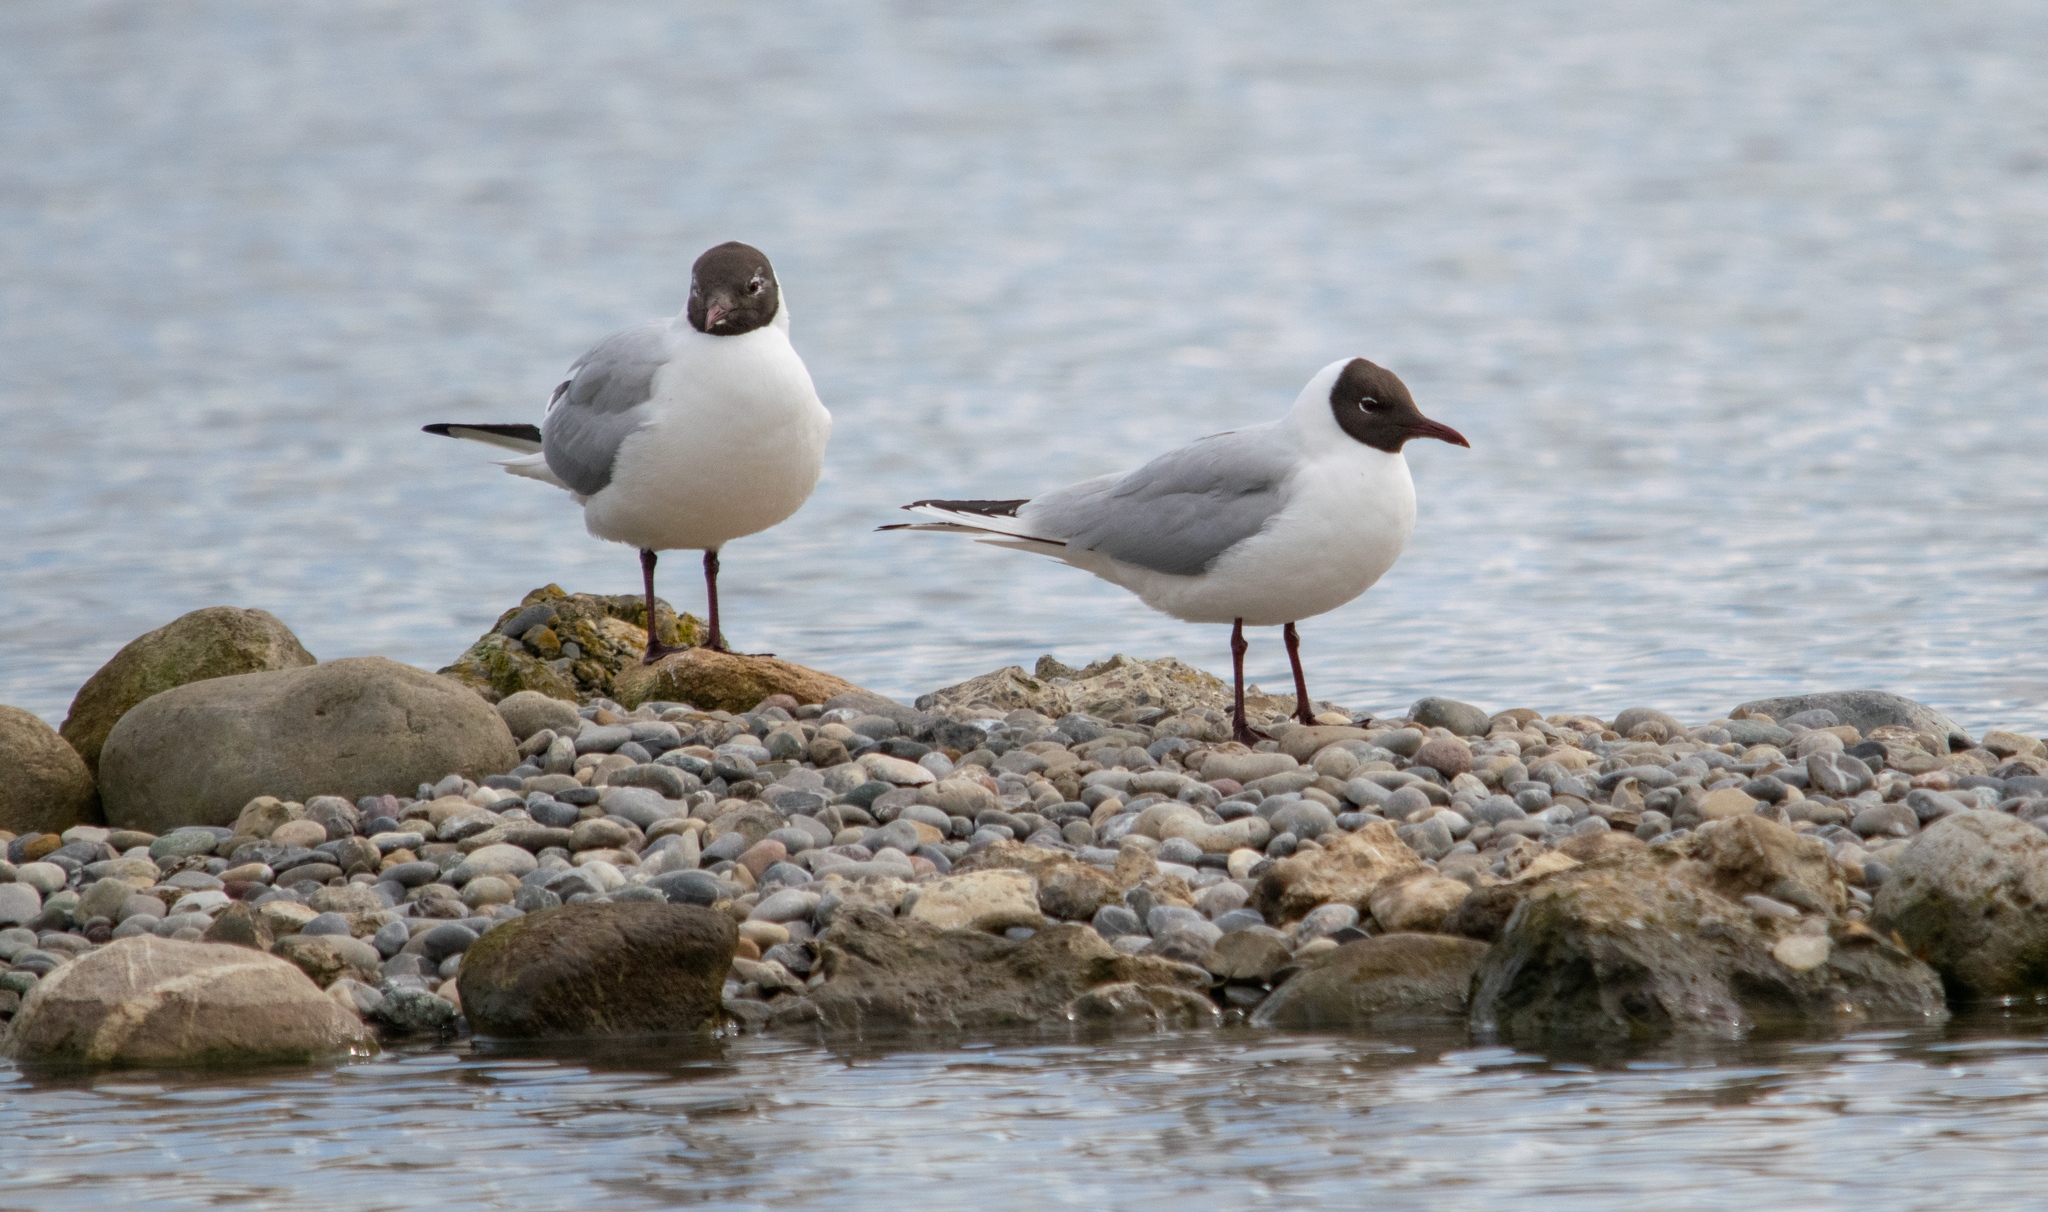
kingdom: Animalia
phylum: Chordata
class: Aves
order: Charadriiformes
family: Laridae
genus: Chroicocephalus
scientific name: Chroicocephalus ridibundus
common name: Black-headed gull
